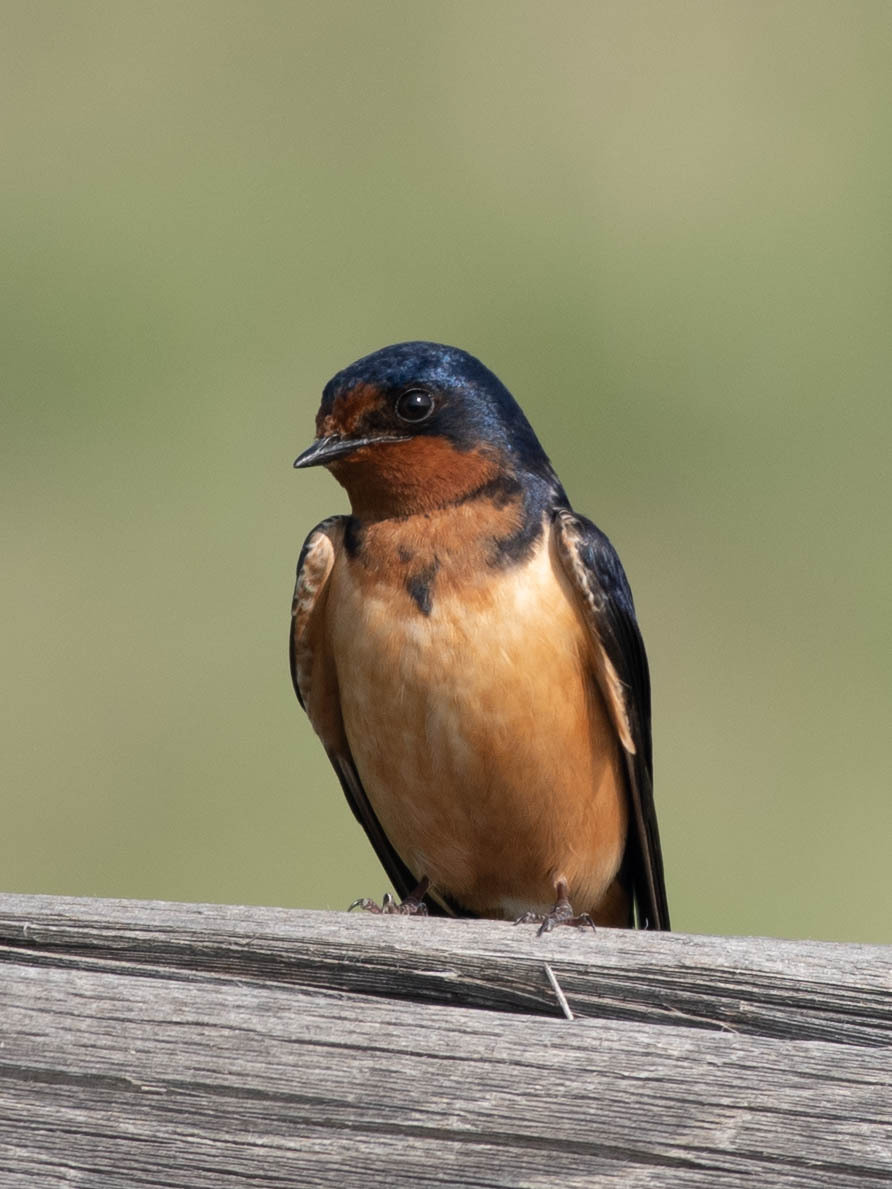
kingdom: Animalia
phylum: Chordata
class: Aves
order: Passeriformes
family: Hirundinidae
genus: Hirundo
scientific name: Hirundo rustica
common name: Barn swallow
